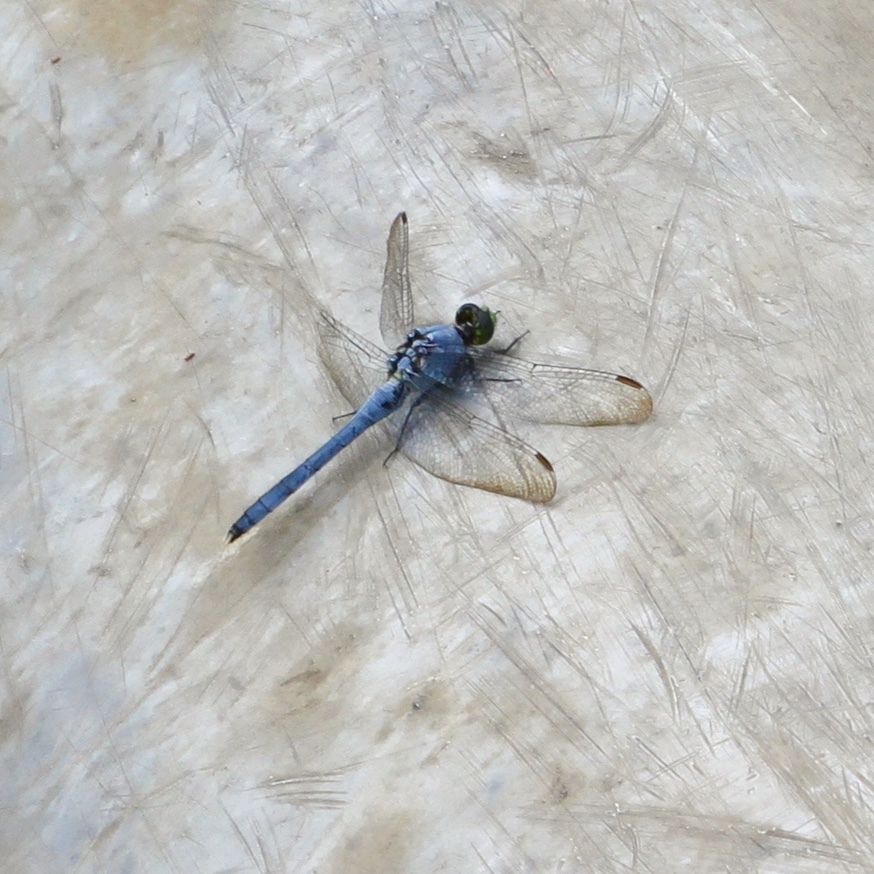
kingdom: Animalia
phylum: Arthropoda
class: Insecta
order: Odonata
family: Libellulidae
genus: Erythemis
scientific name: Erythemis simplicicollis
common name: Eastern pondhawk
